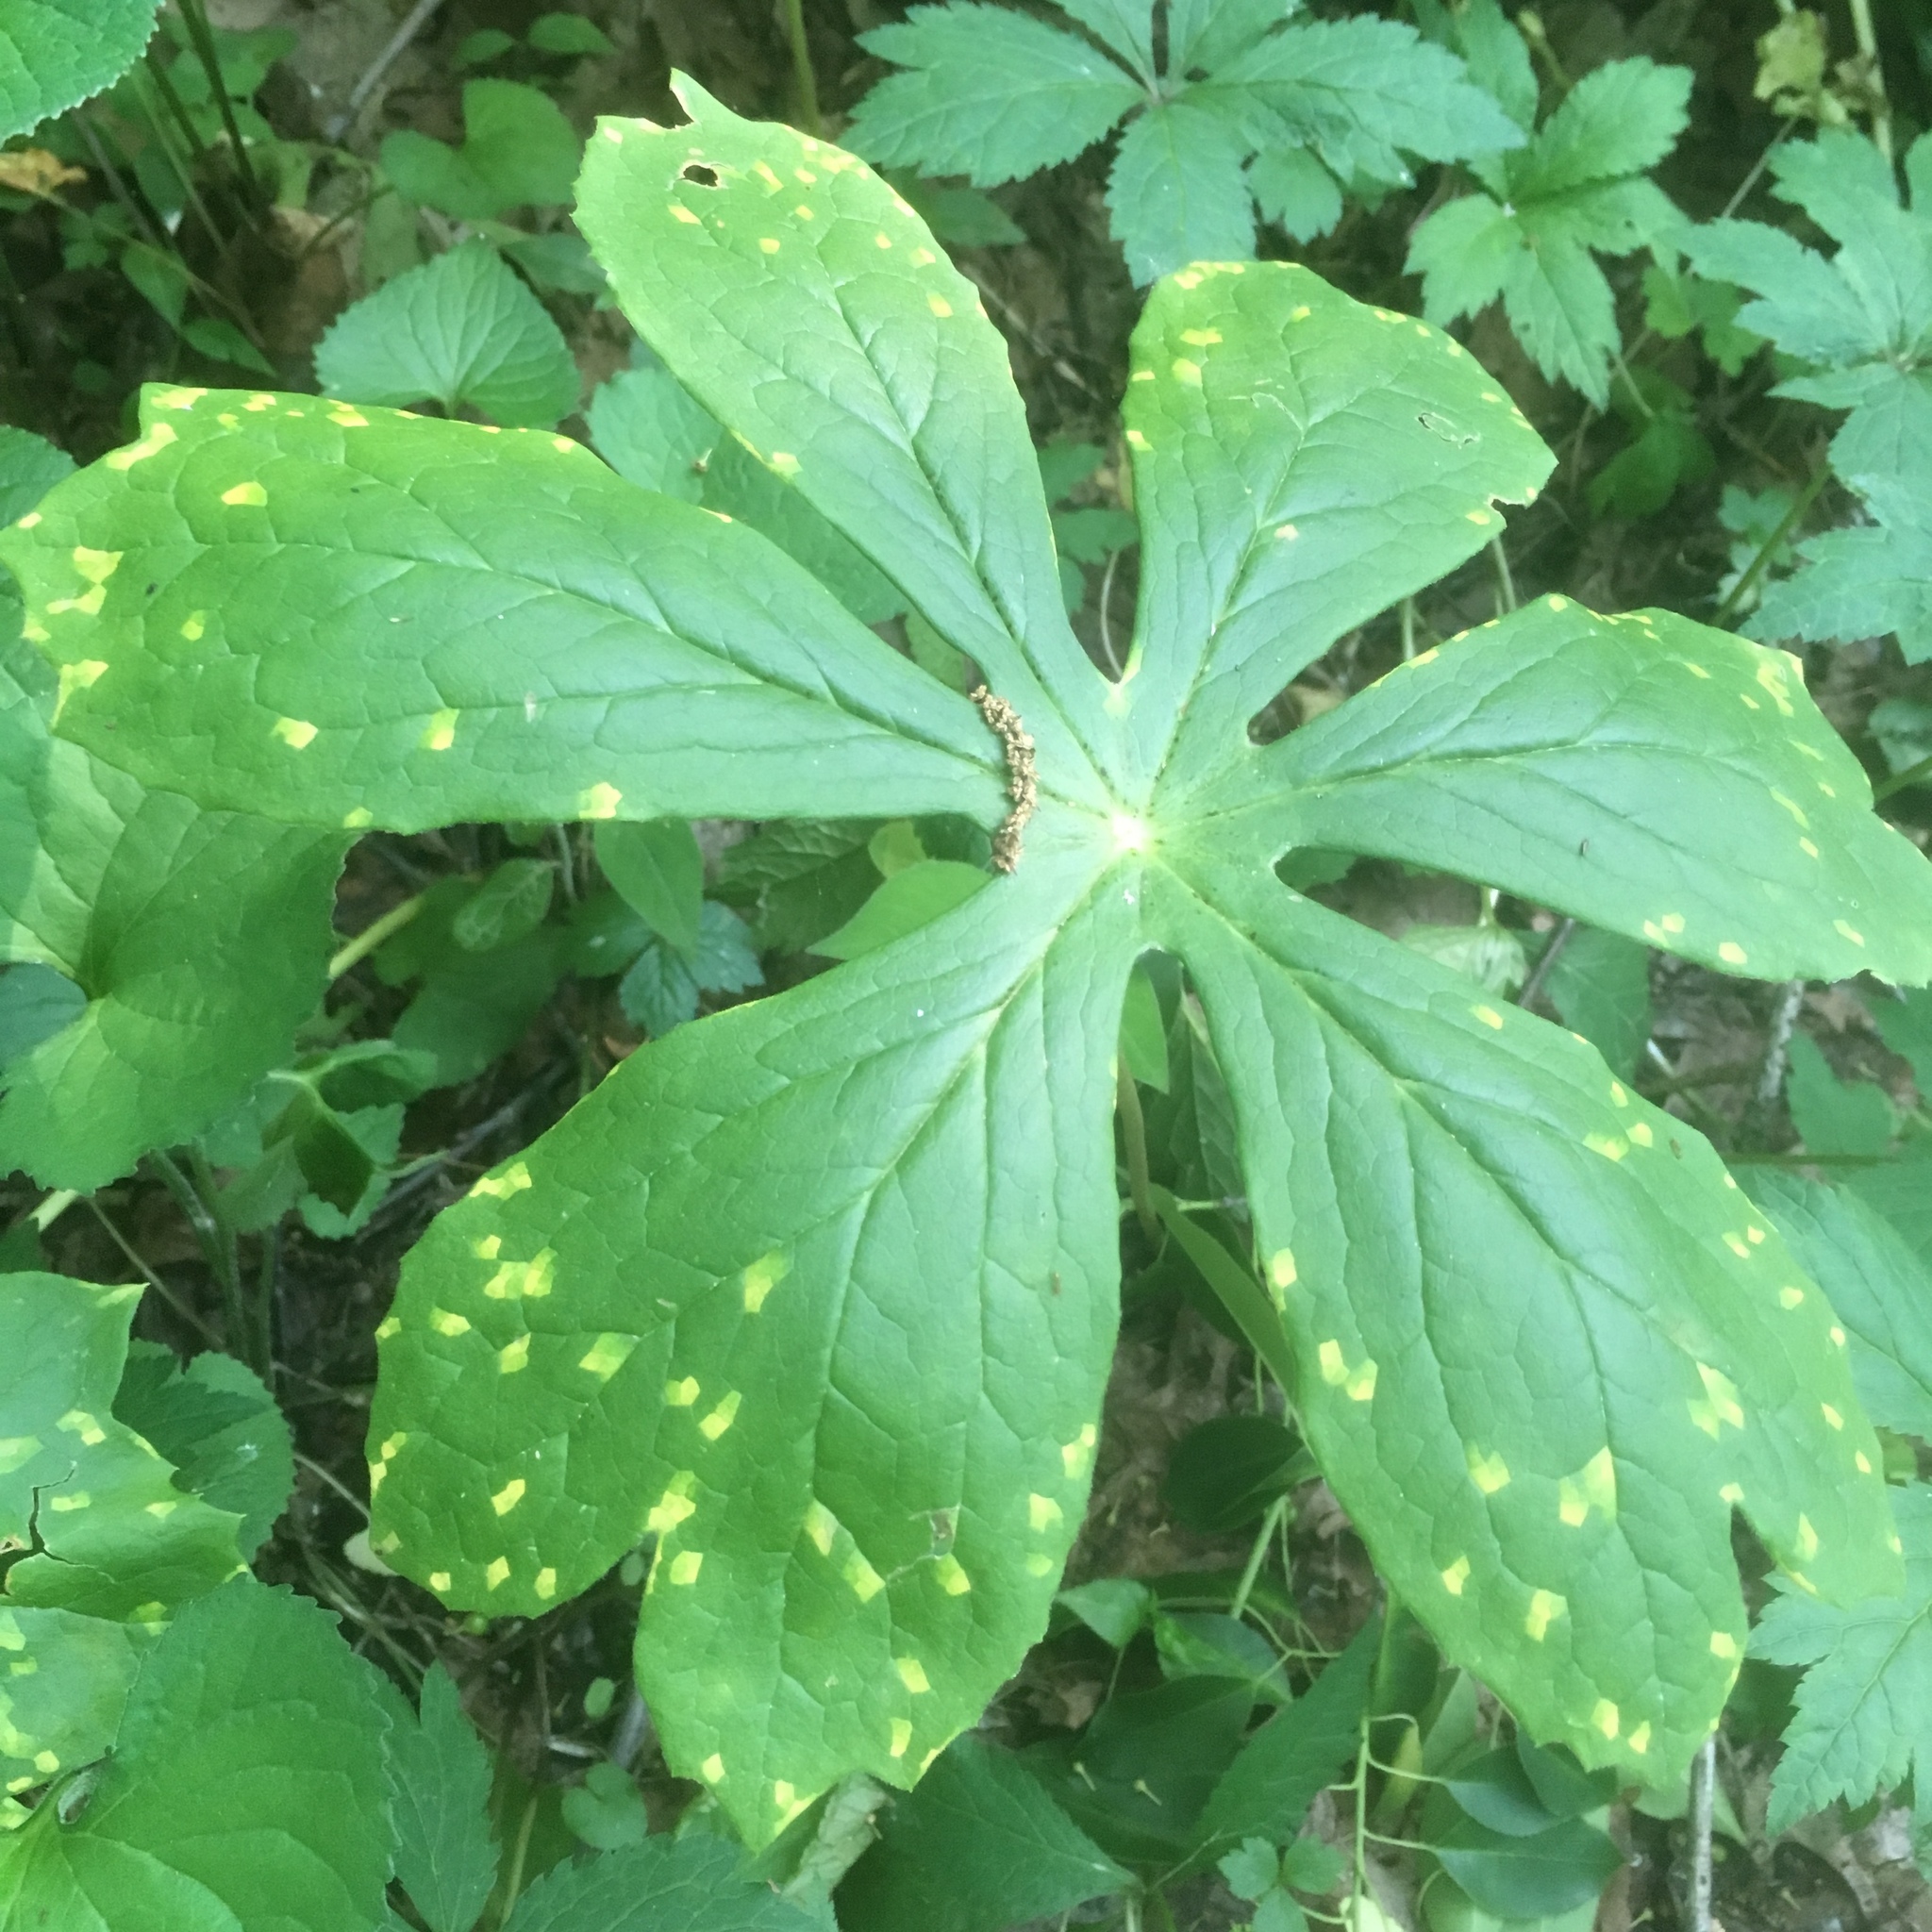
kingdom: Plantae
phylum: Tracheophyta
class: Magnoliopsida
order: Ranunculales
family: Berberidaceae
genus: Podophyllum
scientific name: Podophyllum peltatum
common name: Wild mandrake
